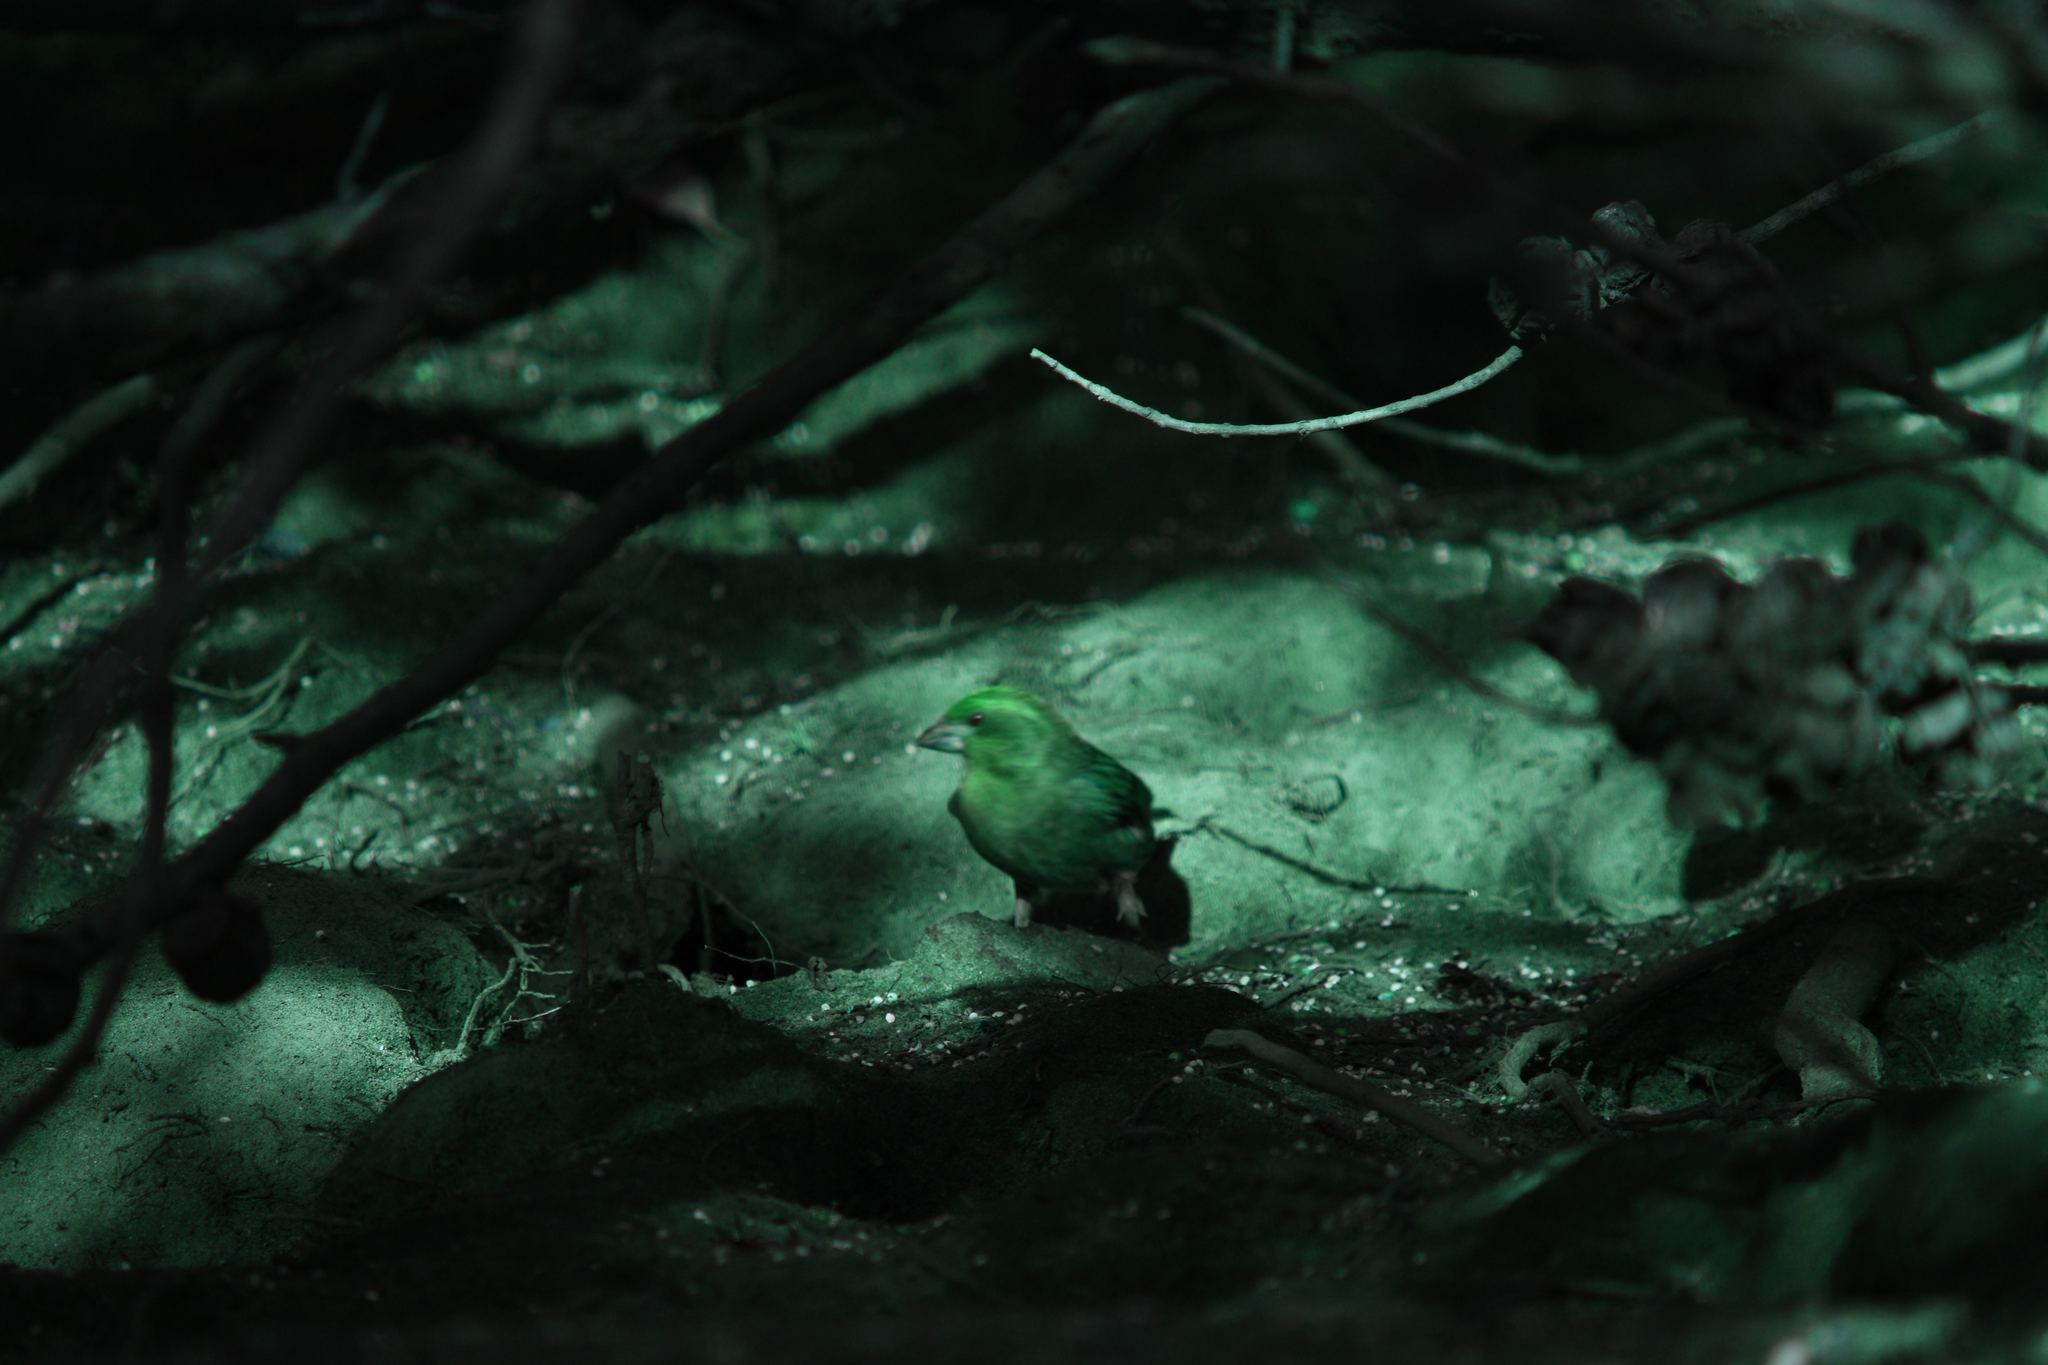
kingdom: Animalia
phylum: Chordata
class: Aves
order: Passeriformes
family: Fringillidae
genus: Haemorhous
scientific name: Haemorhous purpureus
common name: Purple finch
